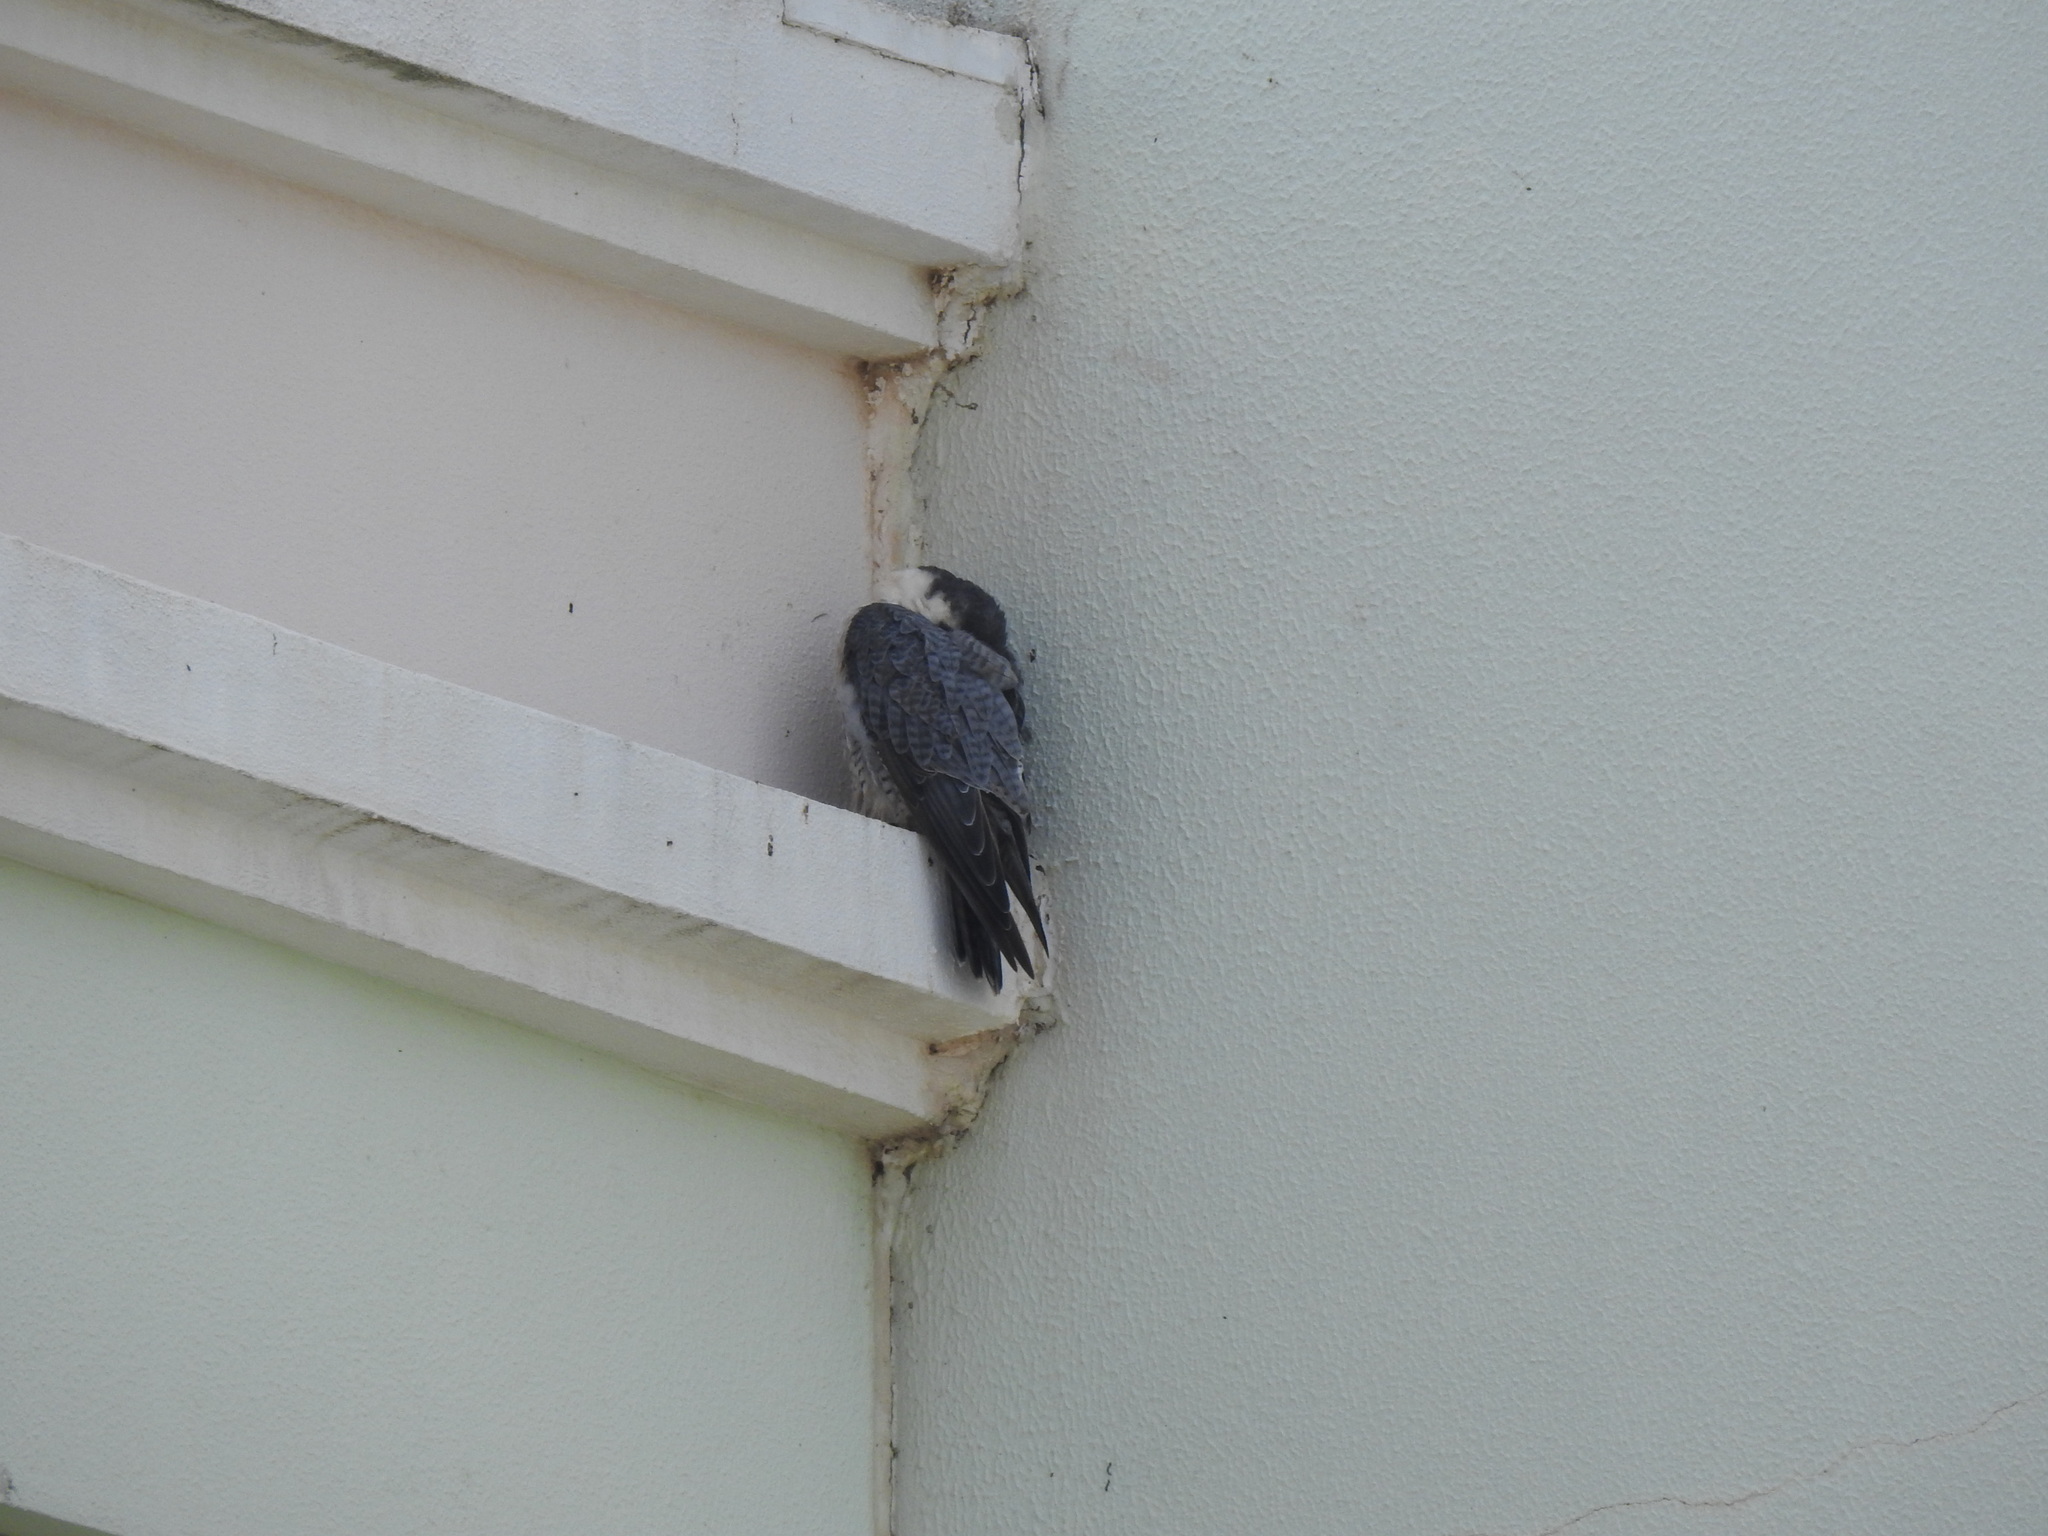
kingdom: Animalia
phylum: Chordata
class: Aves
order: Falconiformes
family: Falconidae
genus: Falco
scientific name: Falco peregrinus
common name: Peregrine falcon
